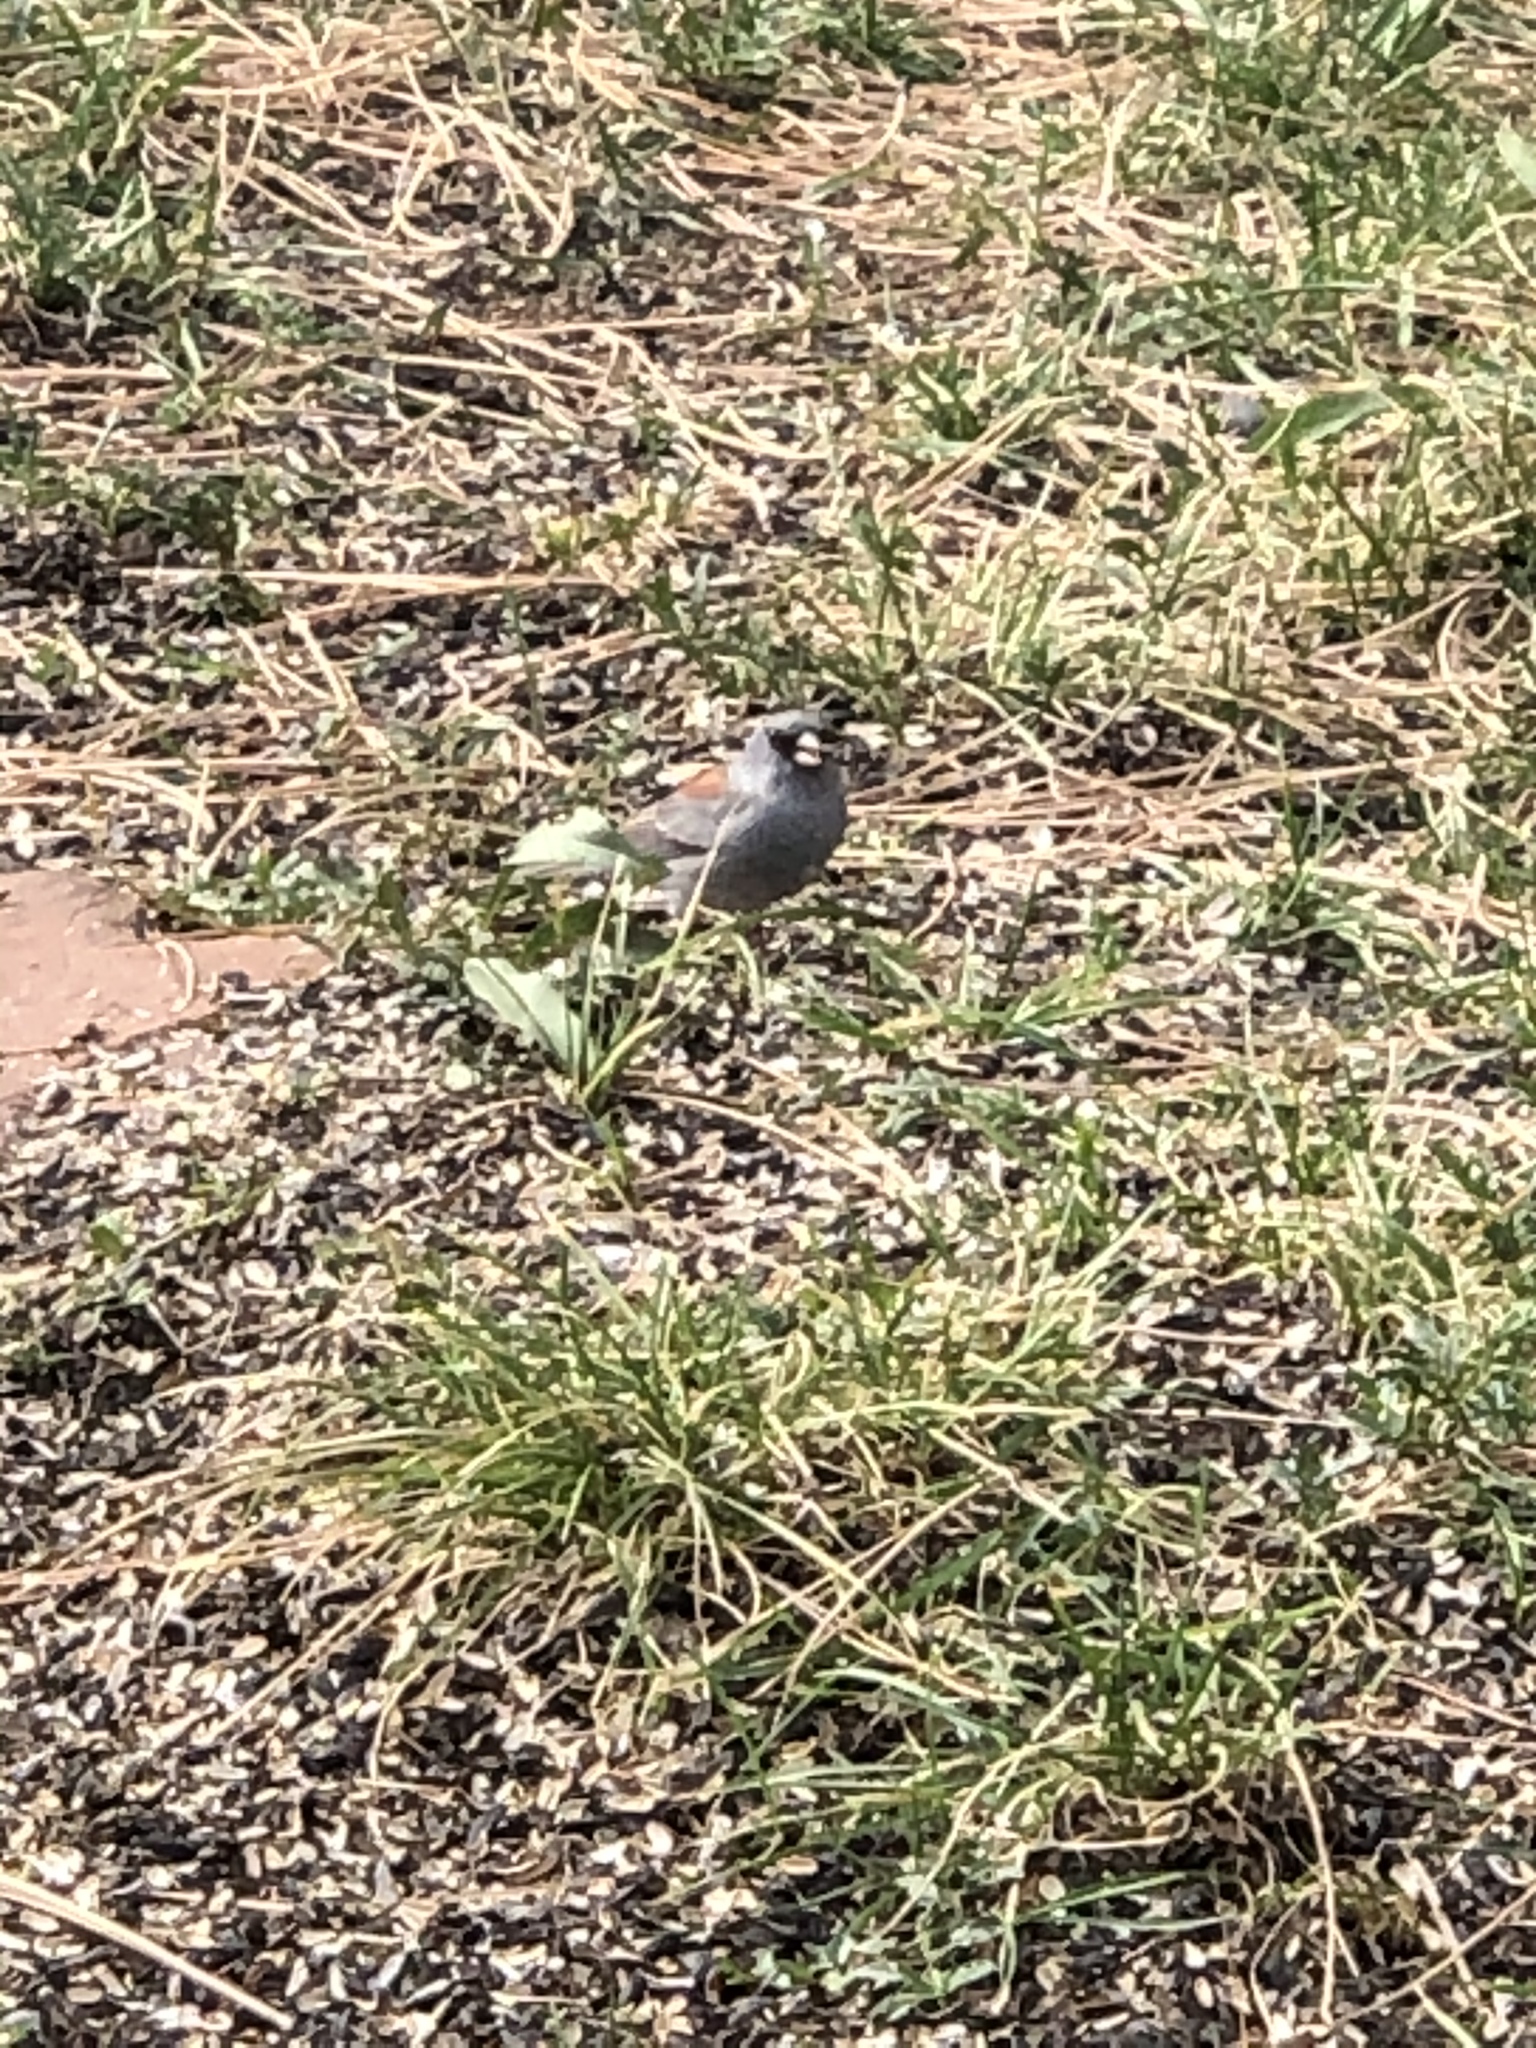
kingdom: Animalia
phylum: Chordata
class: Aves
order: Passeriformes
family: Passerellidae
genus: Junco
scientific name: Junco hyemalis
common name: Dark-eyed junco
